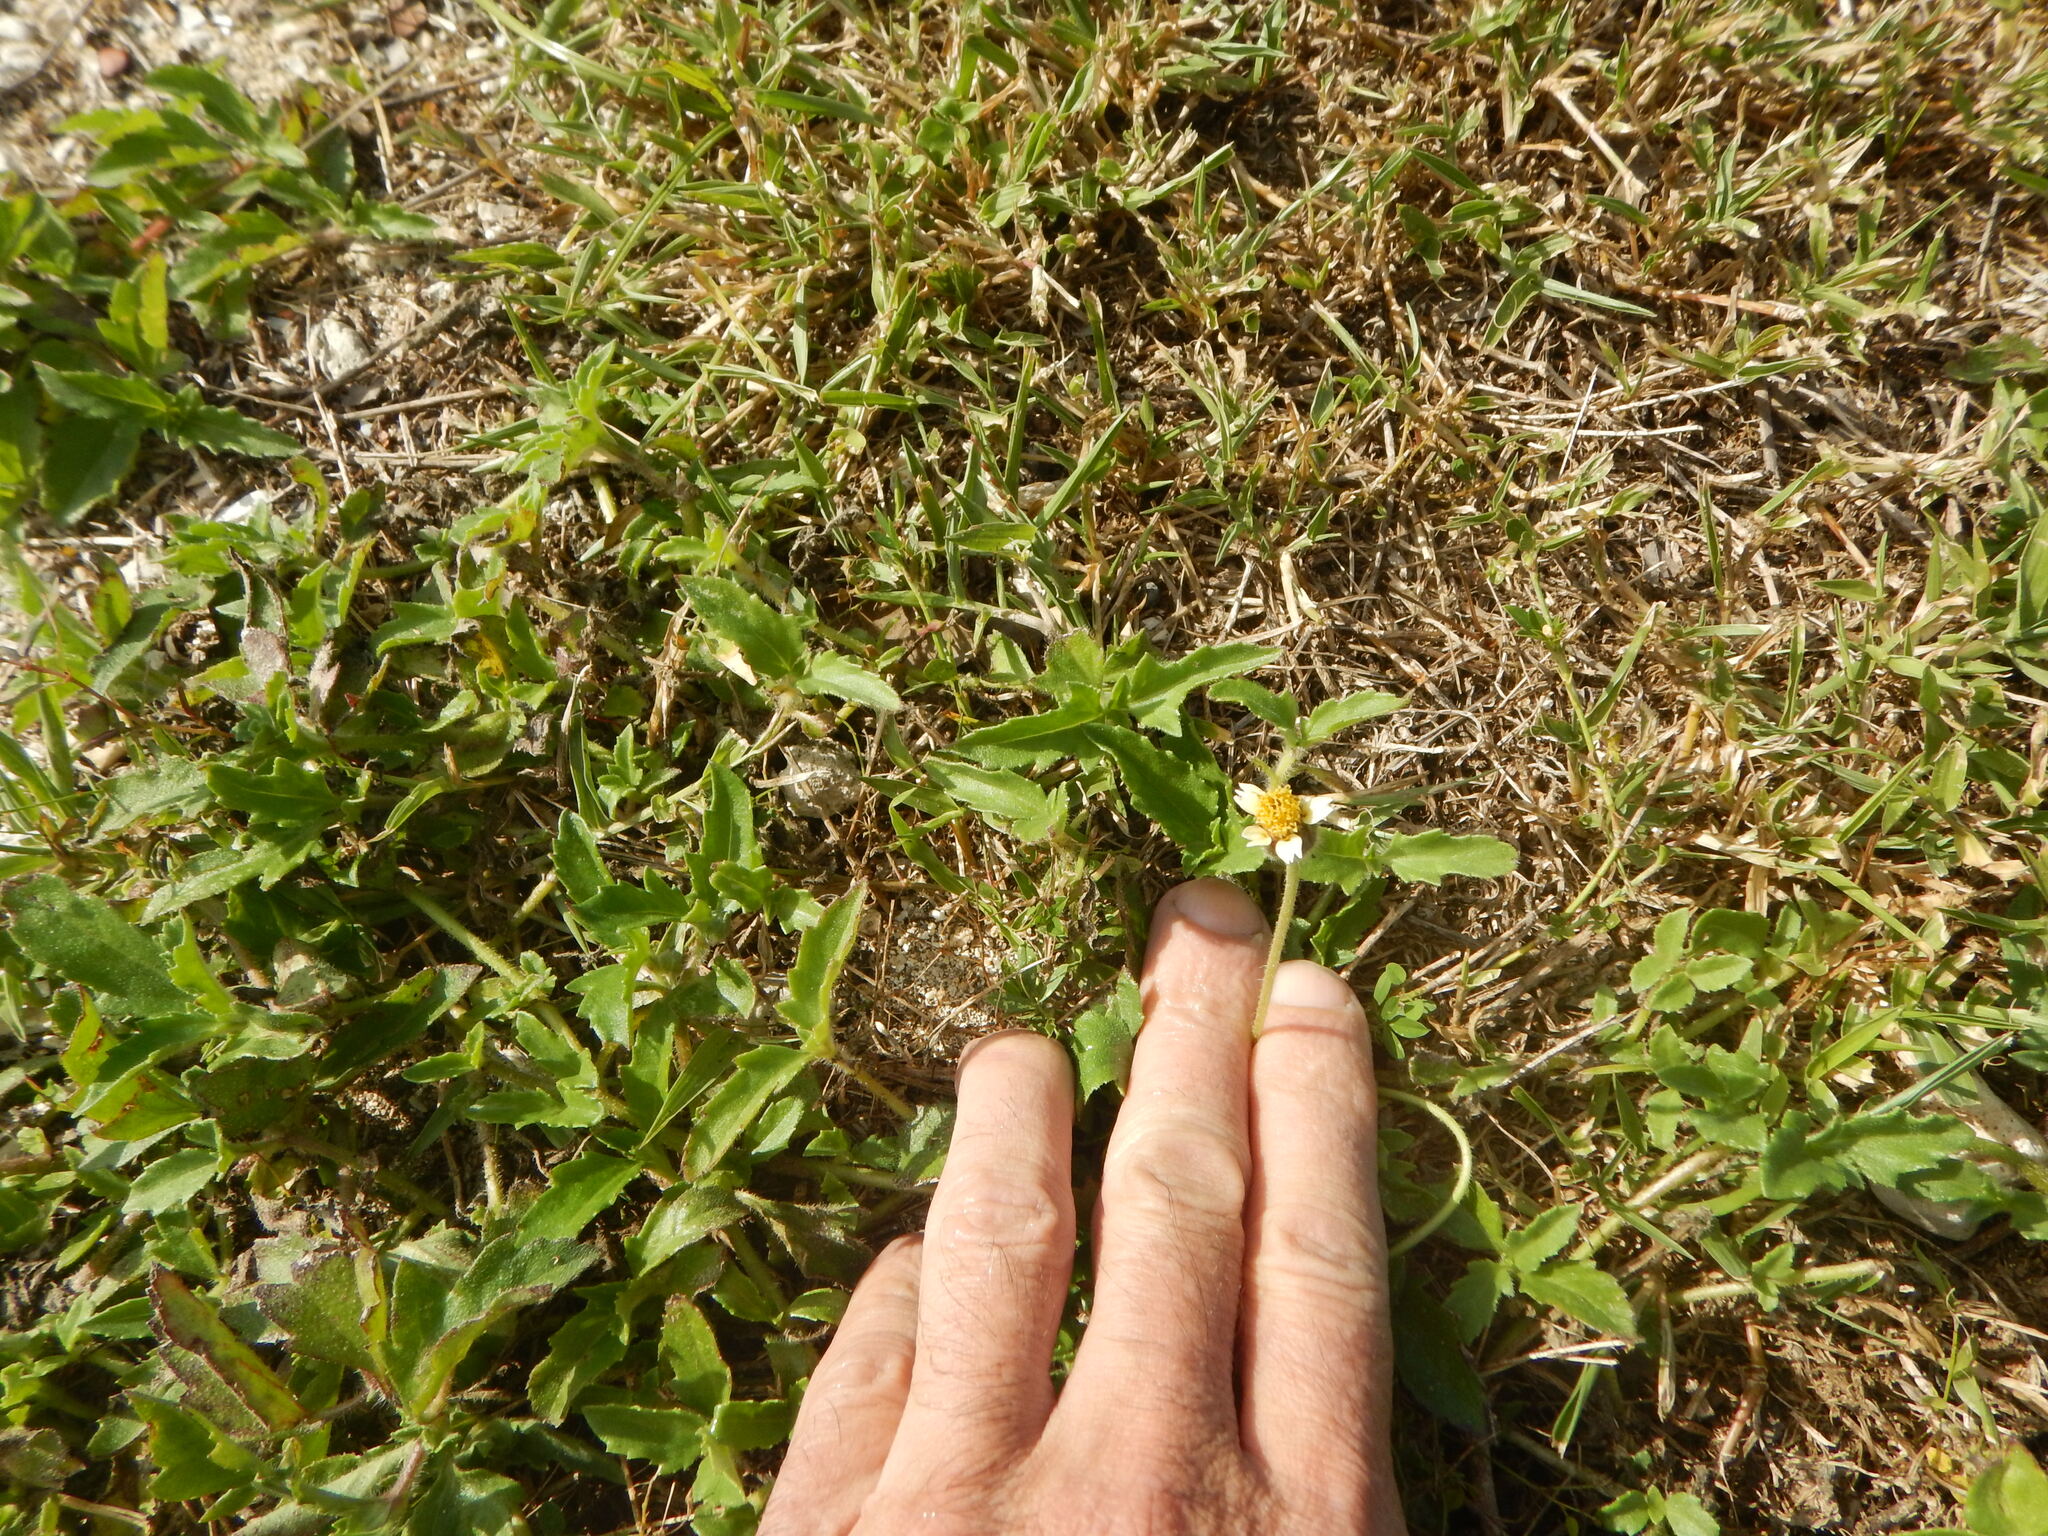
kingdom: Plantae
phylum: Tracheophyta
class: Magnoliopsida
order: Asterales
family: Asteraceae
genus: Tridax
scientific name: Tridax procumbens
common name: Coatbuttons
